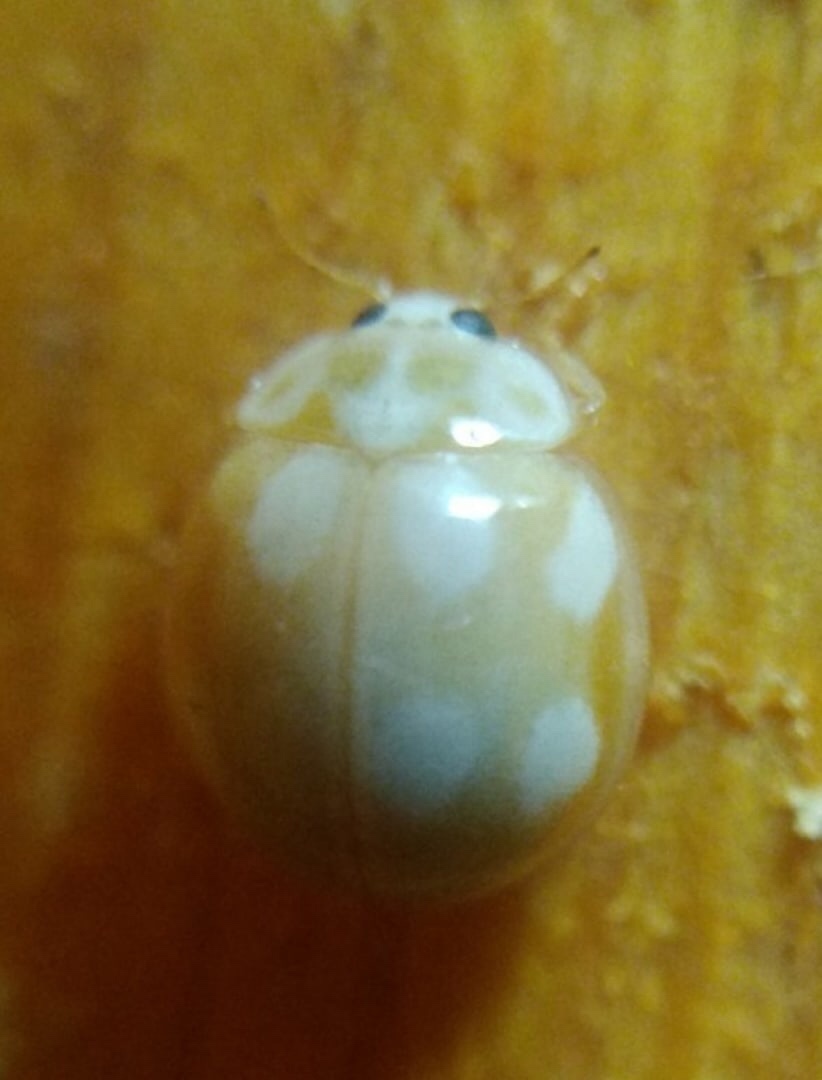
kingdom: Animalia
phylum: Arthropoda
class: Insecta
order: Coleoptera
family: Coccinellidae
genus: Calvia
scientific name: Calvia decemguttata
